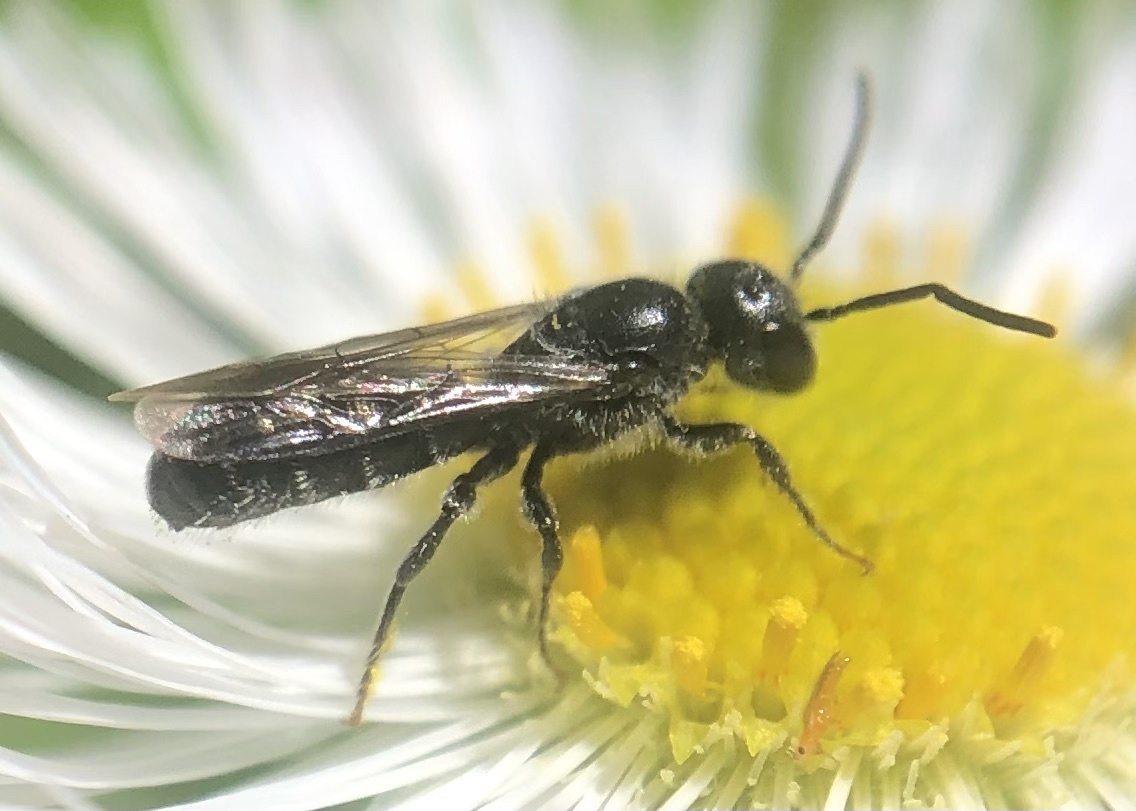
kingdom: Animalia
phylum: Arthropoda
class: Insecta
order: Hymenoptera
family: Megachilidae
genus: Chelostoma
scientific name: Chelostoma philadelphi
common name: Mock-orange scissor bee
